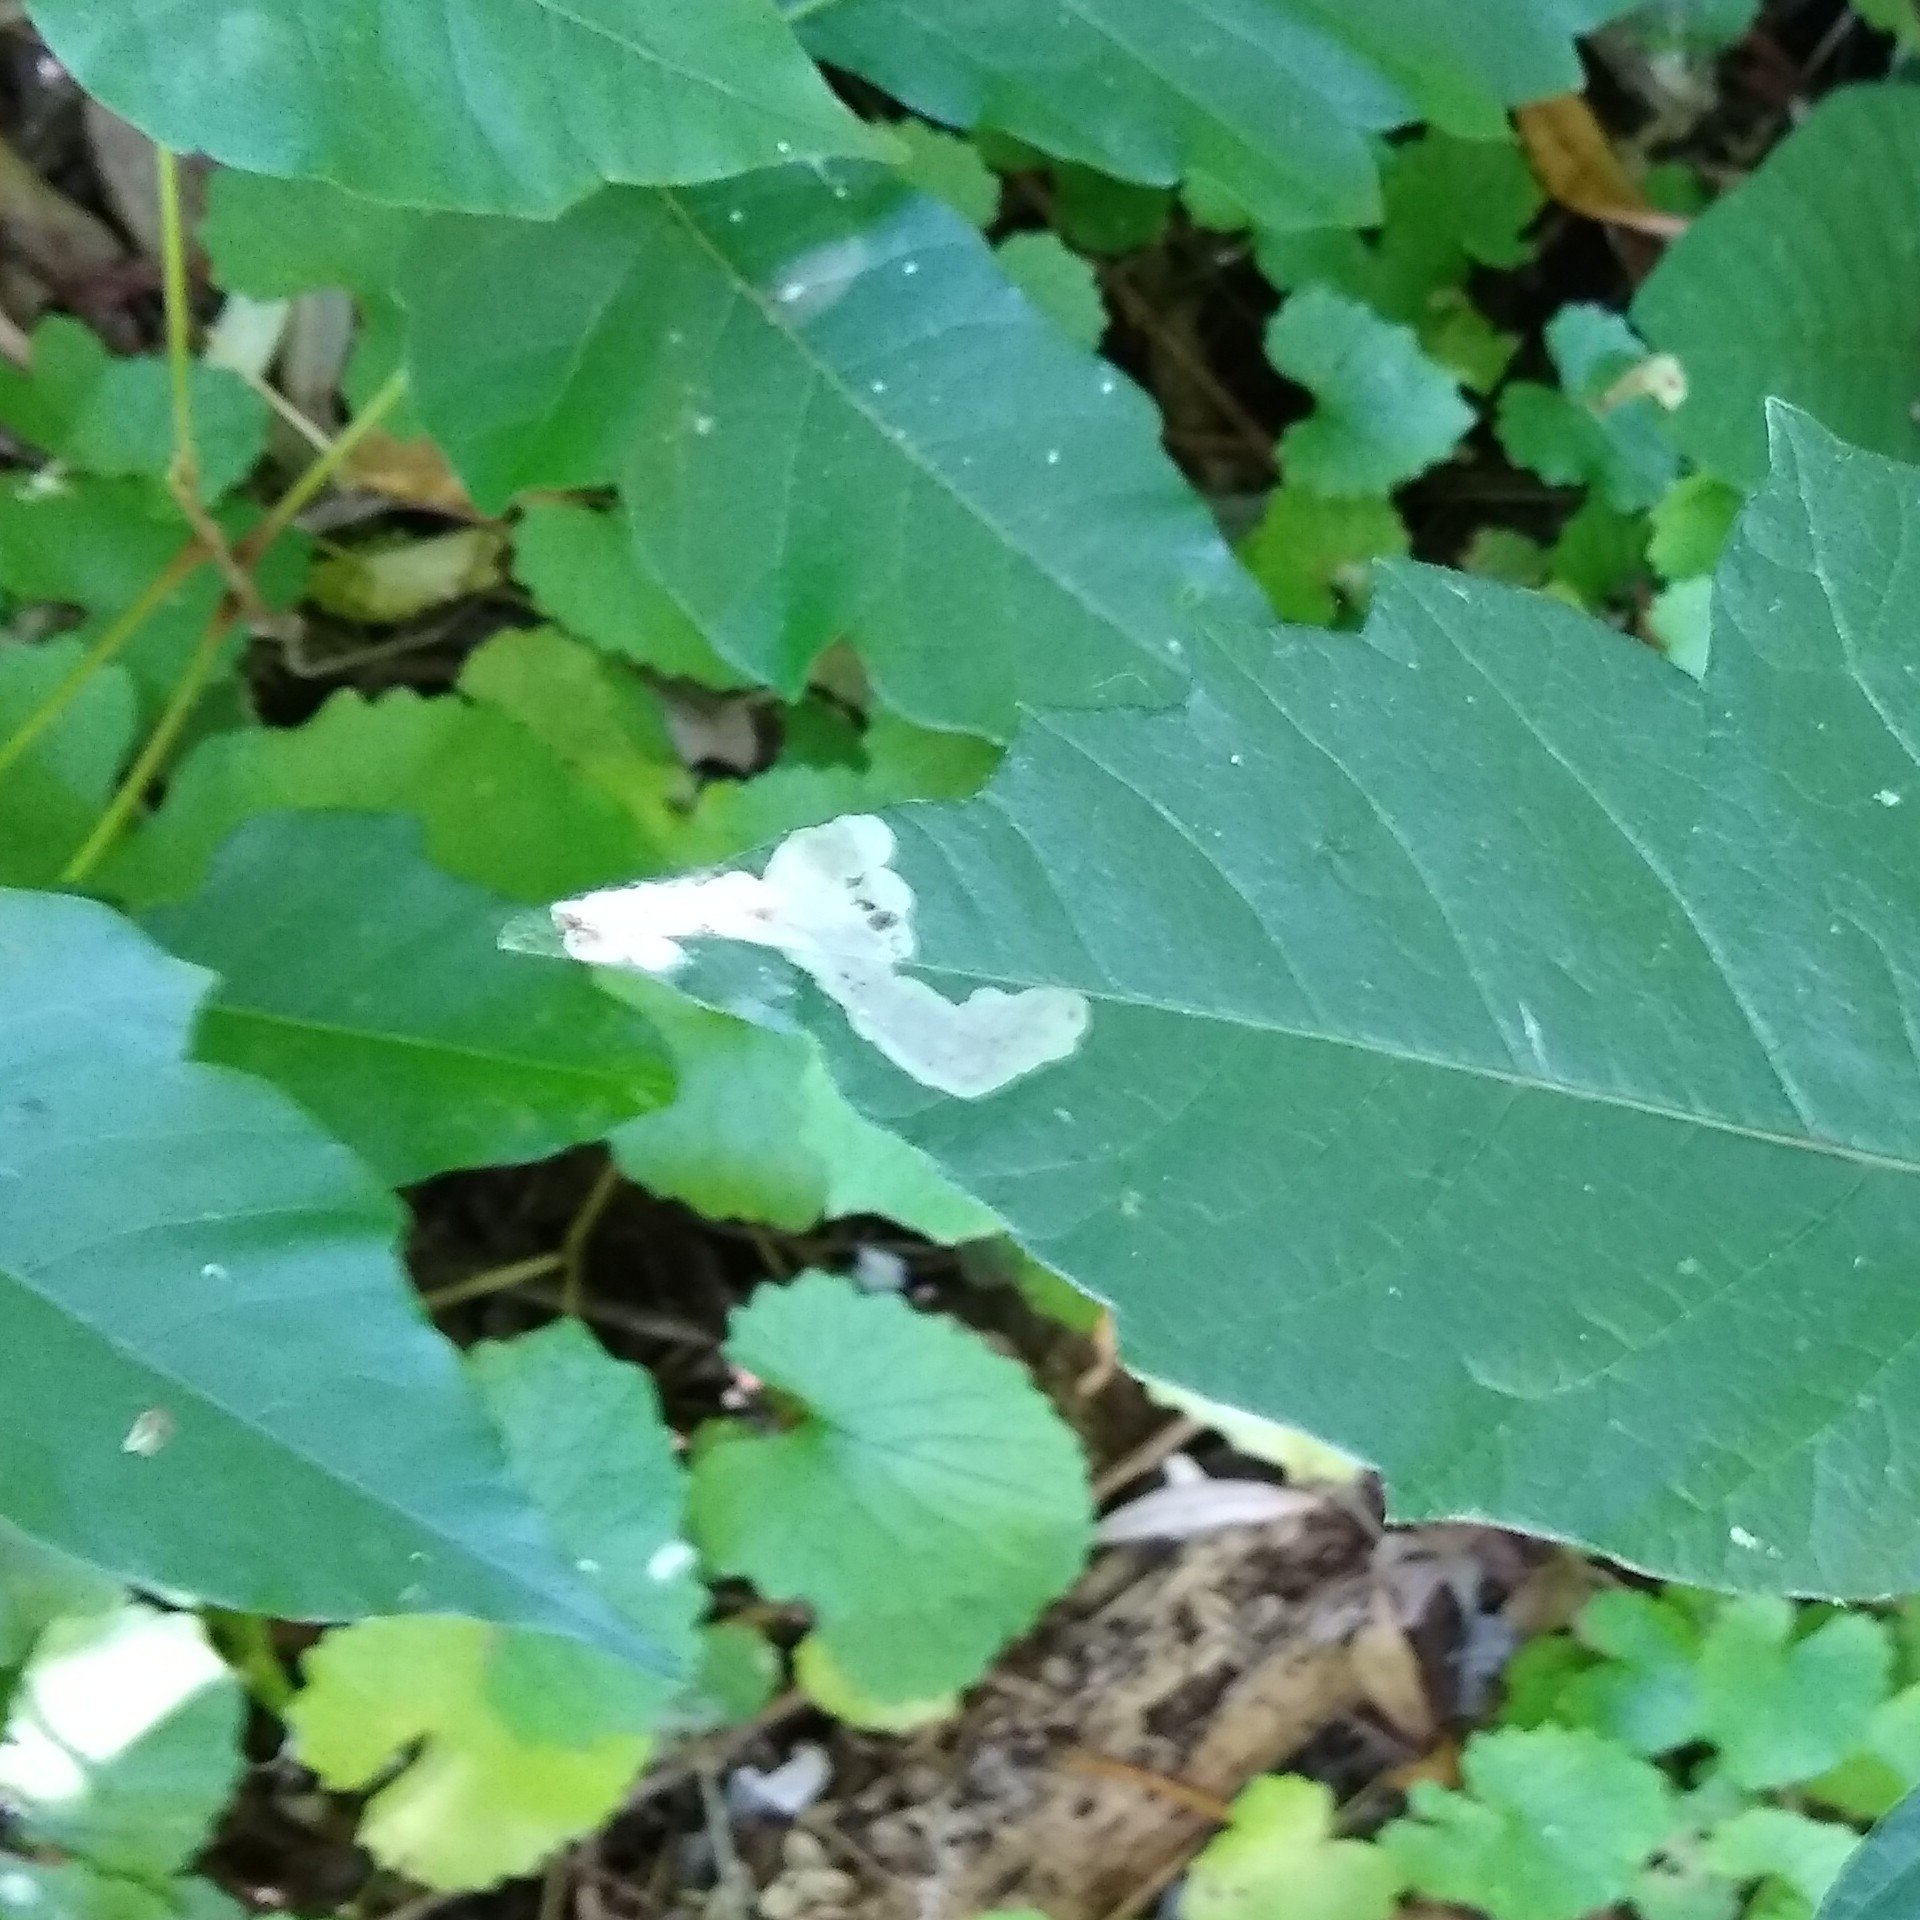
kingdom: Animalia
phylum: Arthropoda
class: Insecta
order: Lepidoptera
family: Gracillariidae
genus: Cameraria
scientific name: Cameraria guttifinitella
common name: Poison ivy leaf-miner moth
